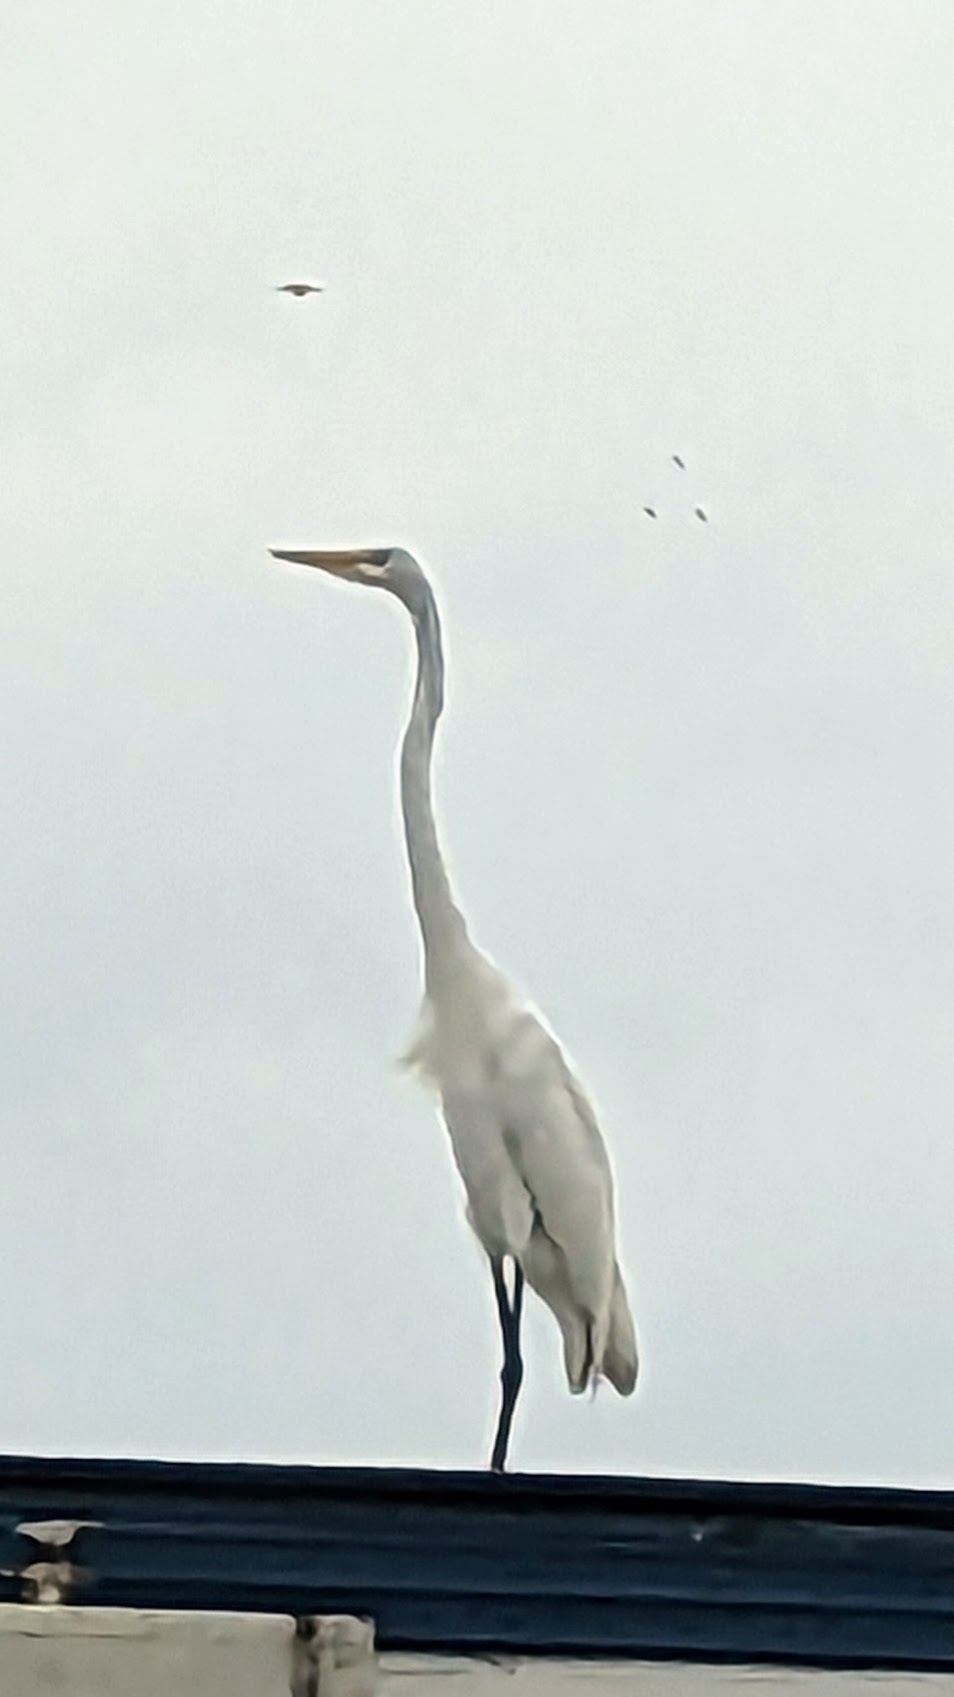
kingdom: Animalia
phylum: Chordata
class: Aves
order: Pelecaniformes
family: Ardeidae
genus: Ardea
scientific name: Ardea alba
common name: Great egret
